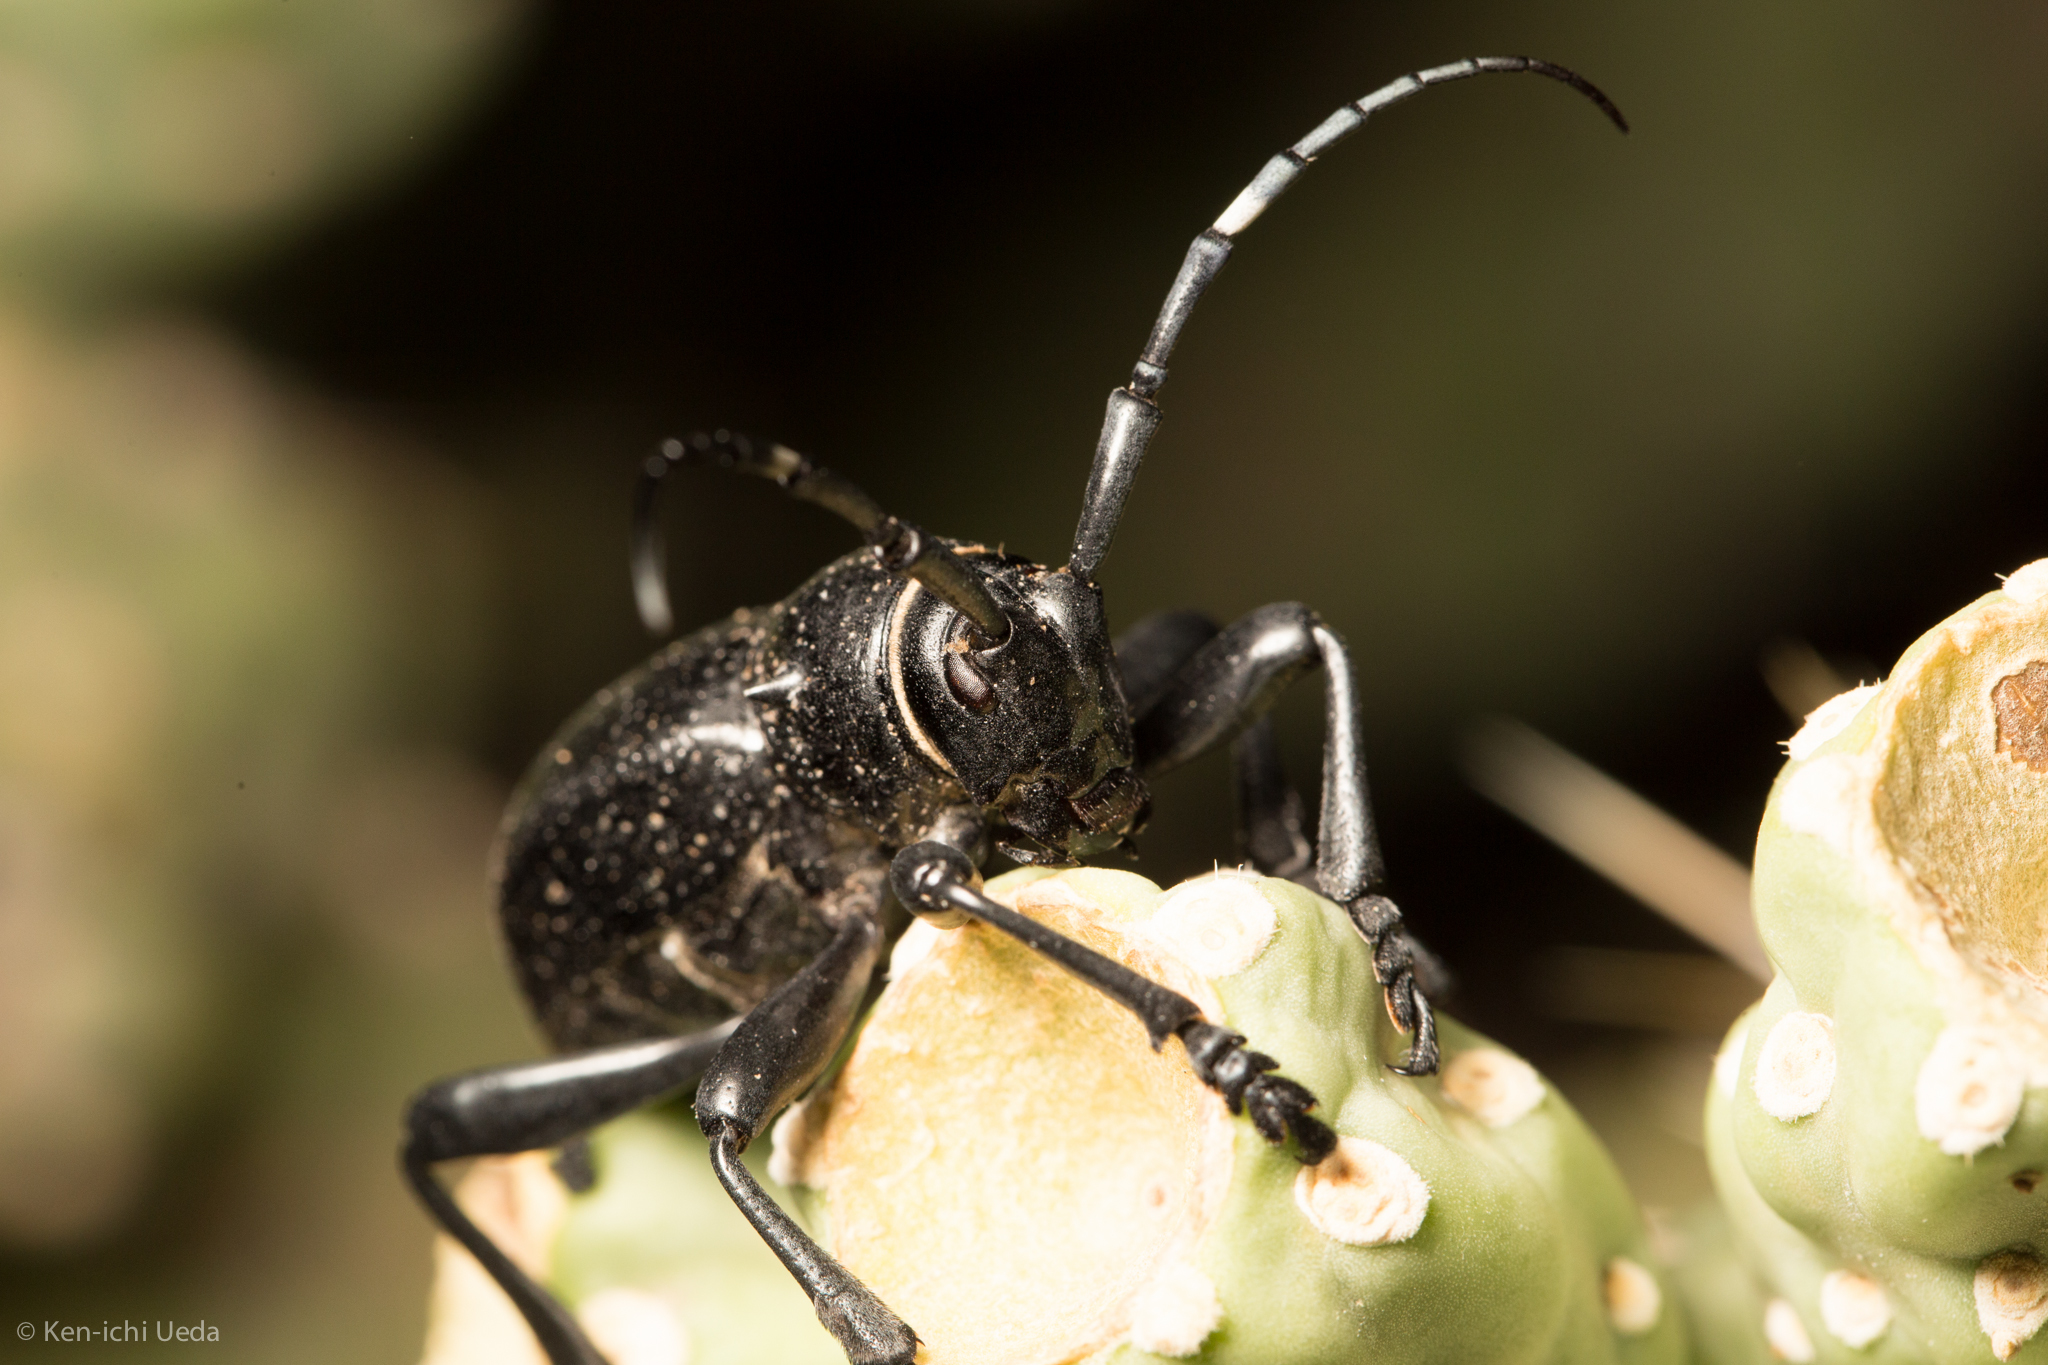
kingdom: Animalia
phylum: Arthropoda
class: Insecta
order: Coleoptera
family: Cerambycidae
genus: Moneilema
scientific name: Moneilema gigas
